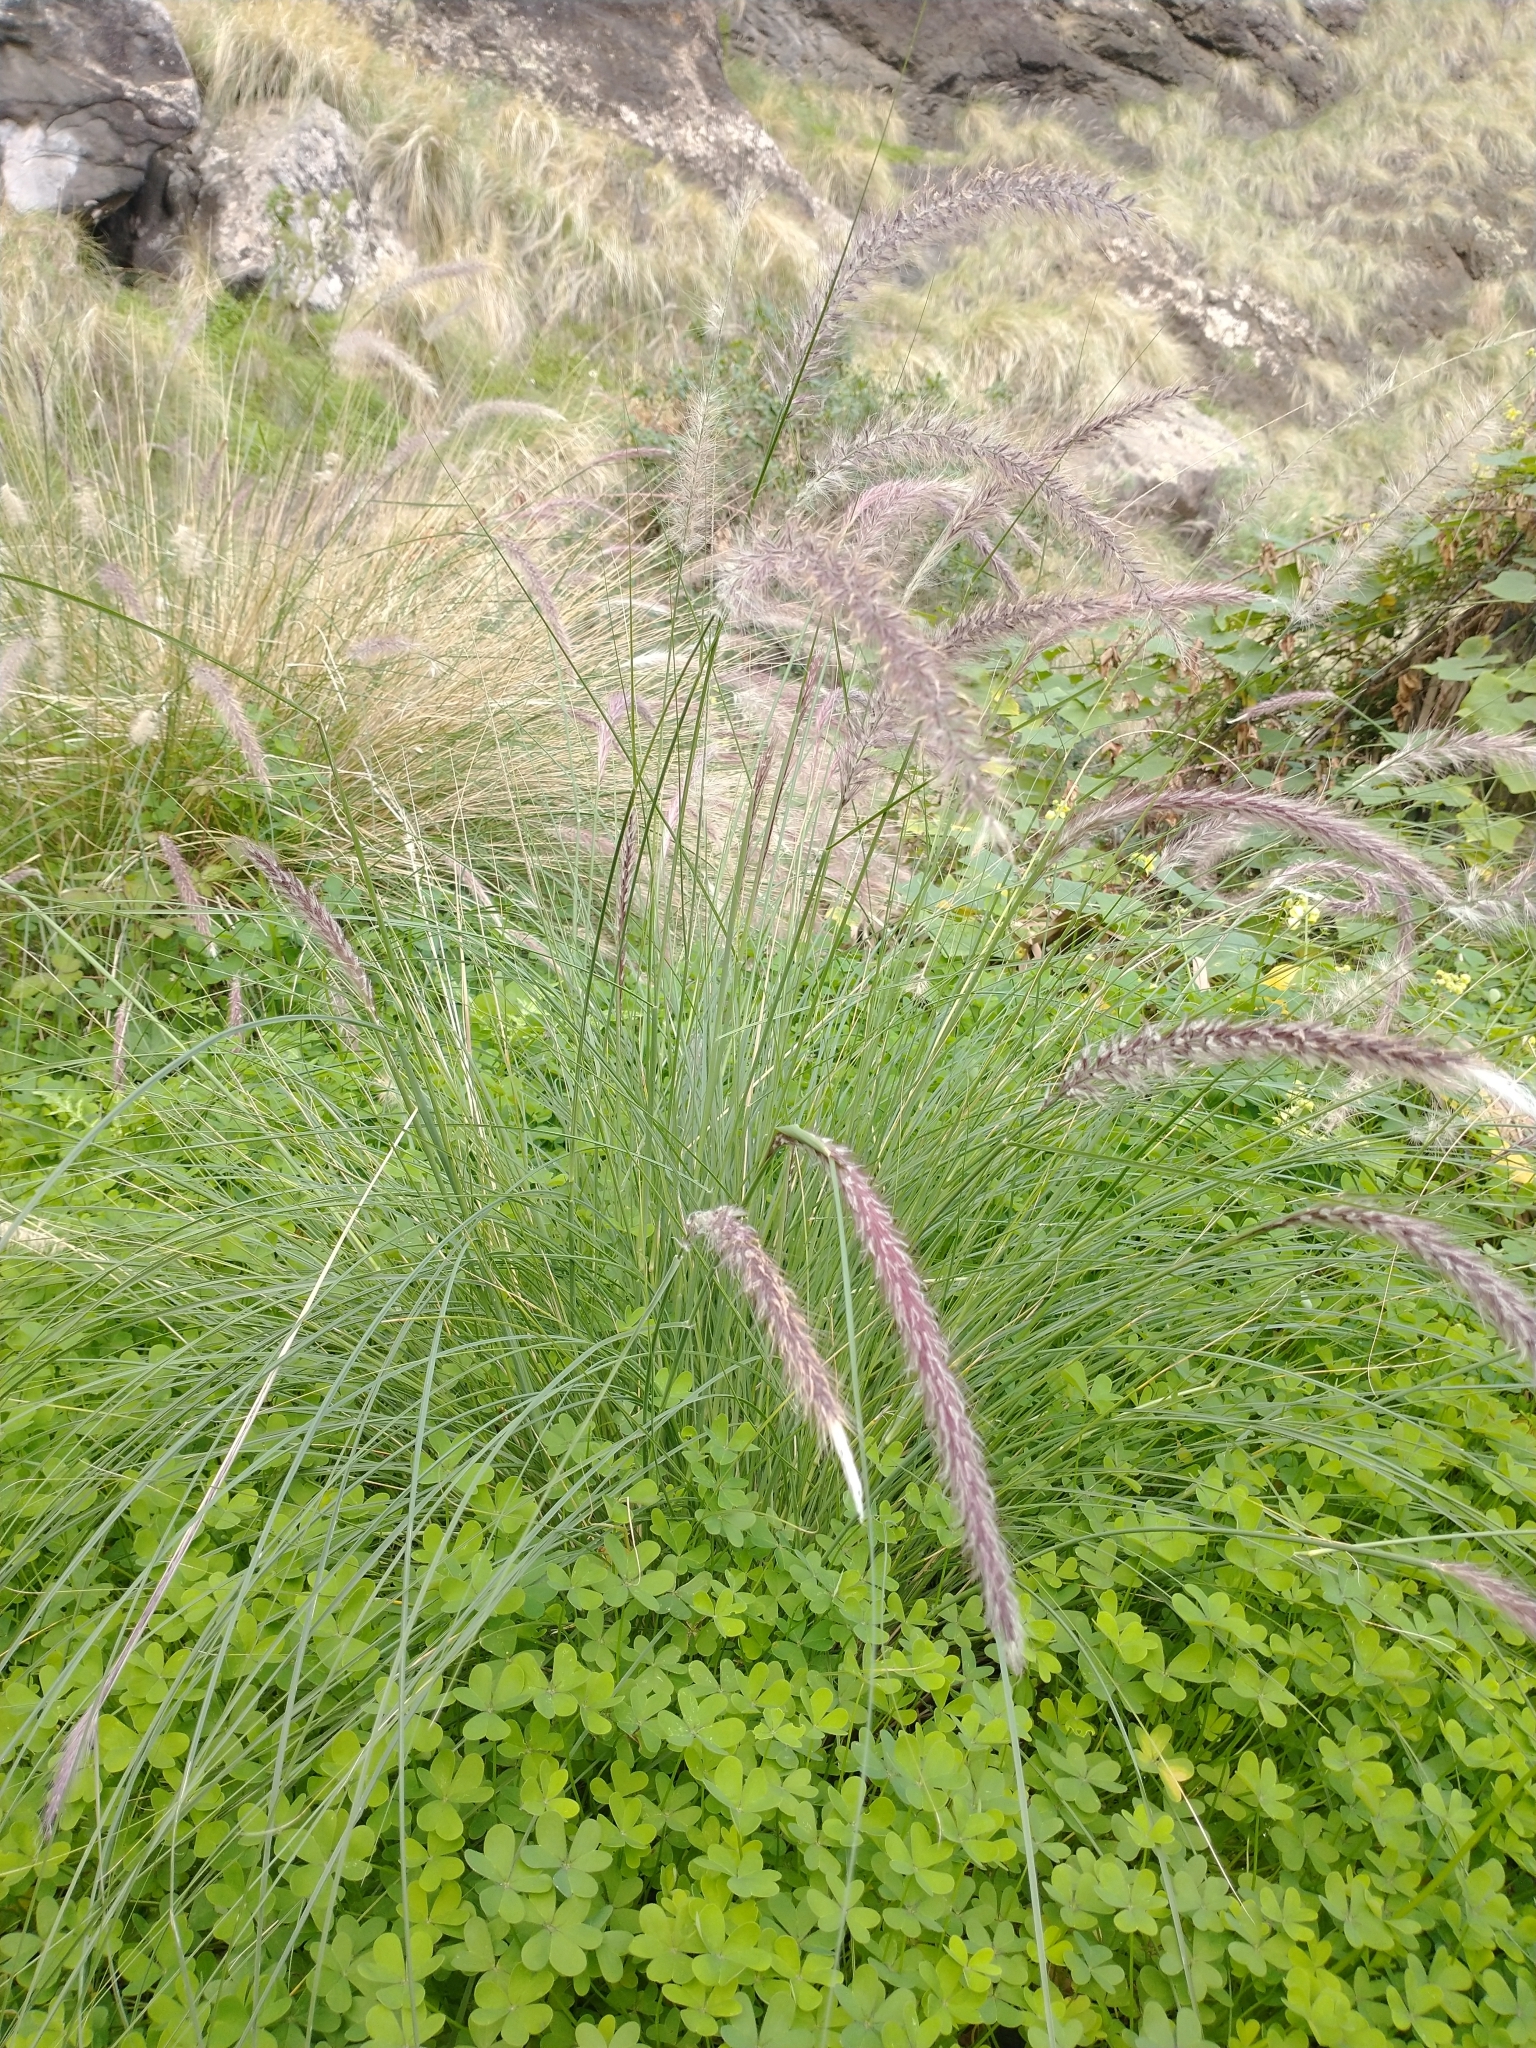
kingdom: Plantae
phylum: Tracheophyta
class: Liliopsida
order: Poales
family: Poaceae
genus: Cenchrus
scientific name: Cenchrus setaceus
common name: Crimson fountaingrass
